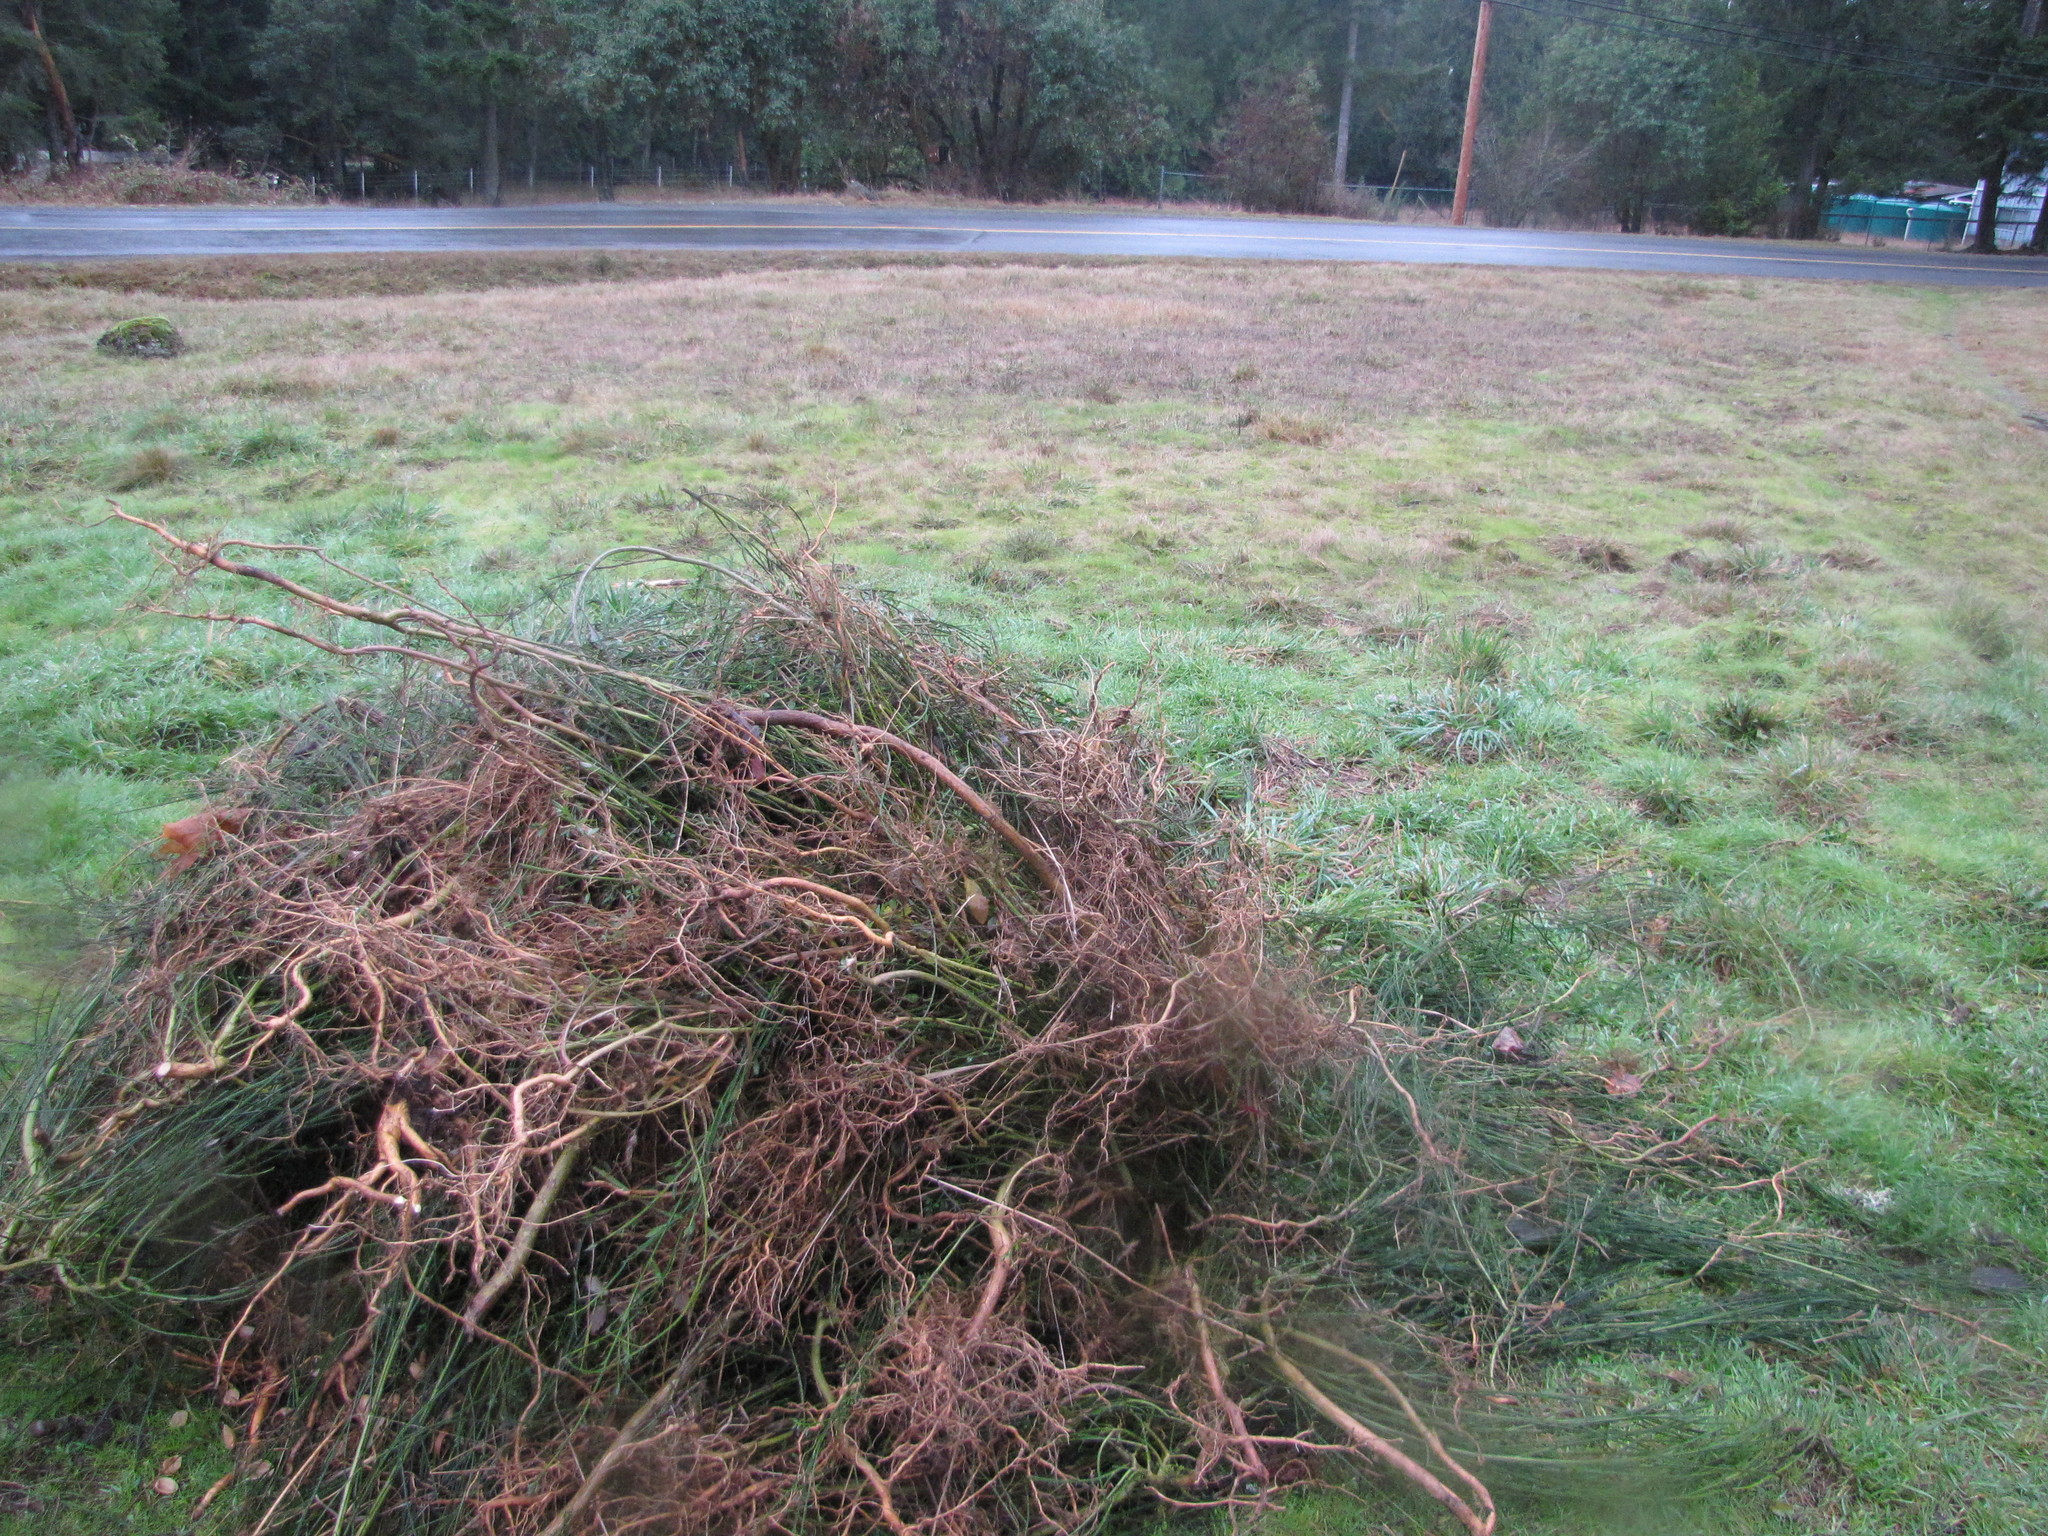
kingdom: Plantae
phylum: Tracheophyta
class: Magnoliopsida
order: Fabales
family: Fabaceae
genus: Cytisus
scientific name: Cytisus scoparius
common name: Scotch broom
